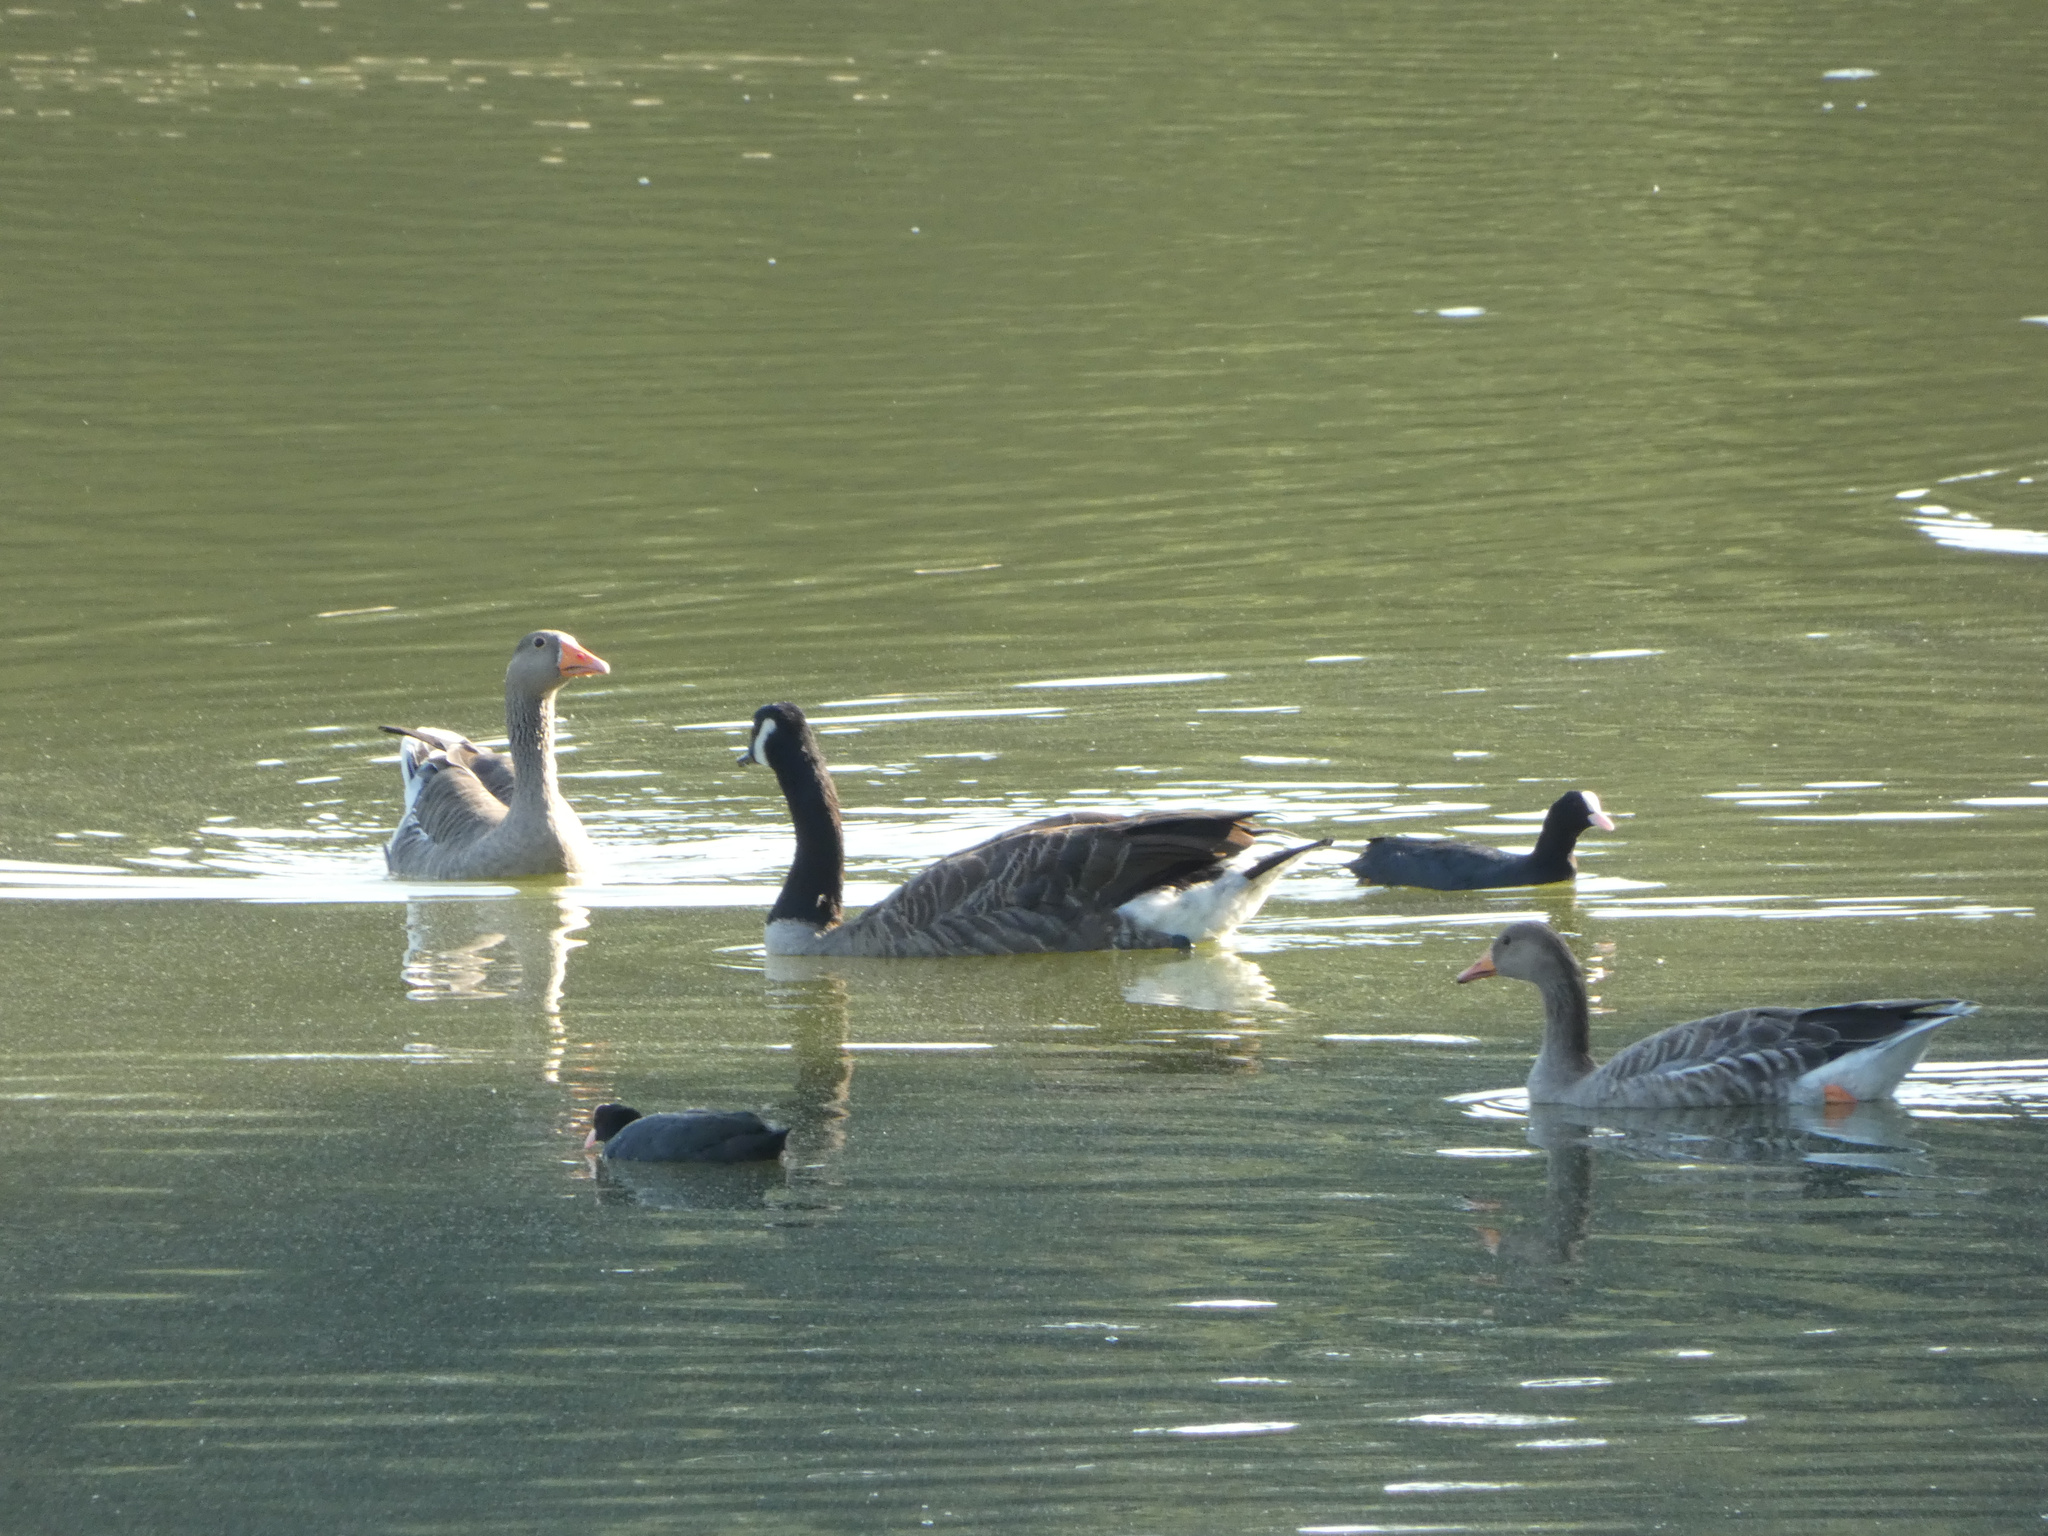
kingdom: Animalia
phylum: Chordata
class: Aves
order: Anseriformes
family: Anatidae
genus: Anser
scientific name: Anser anser
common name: Greylag goose
